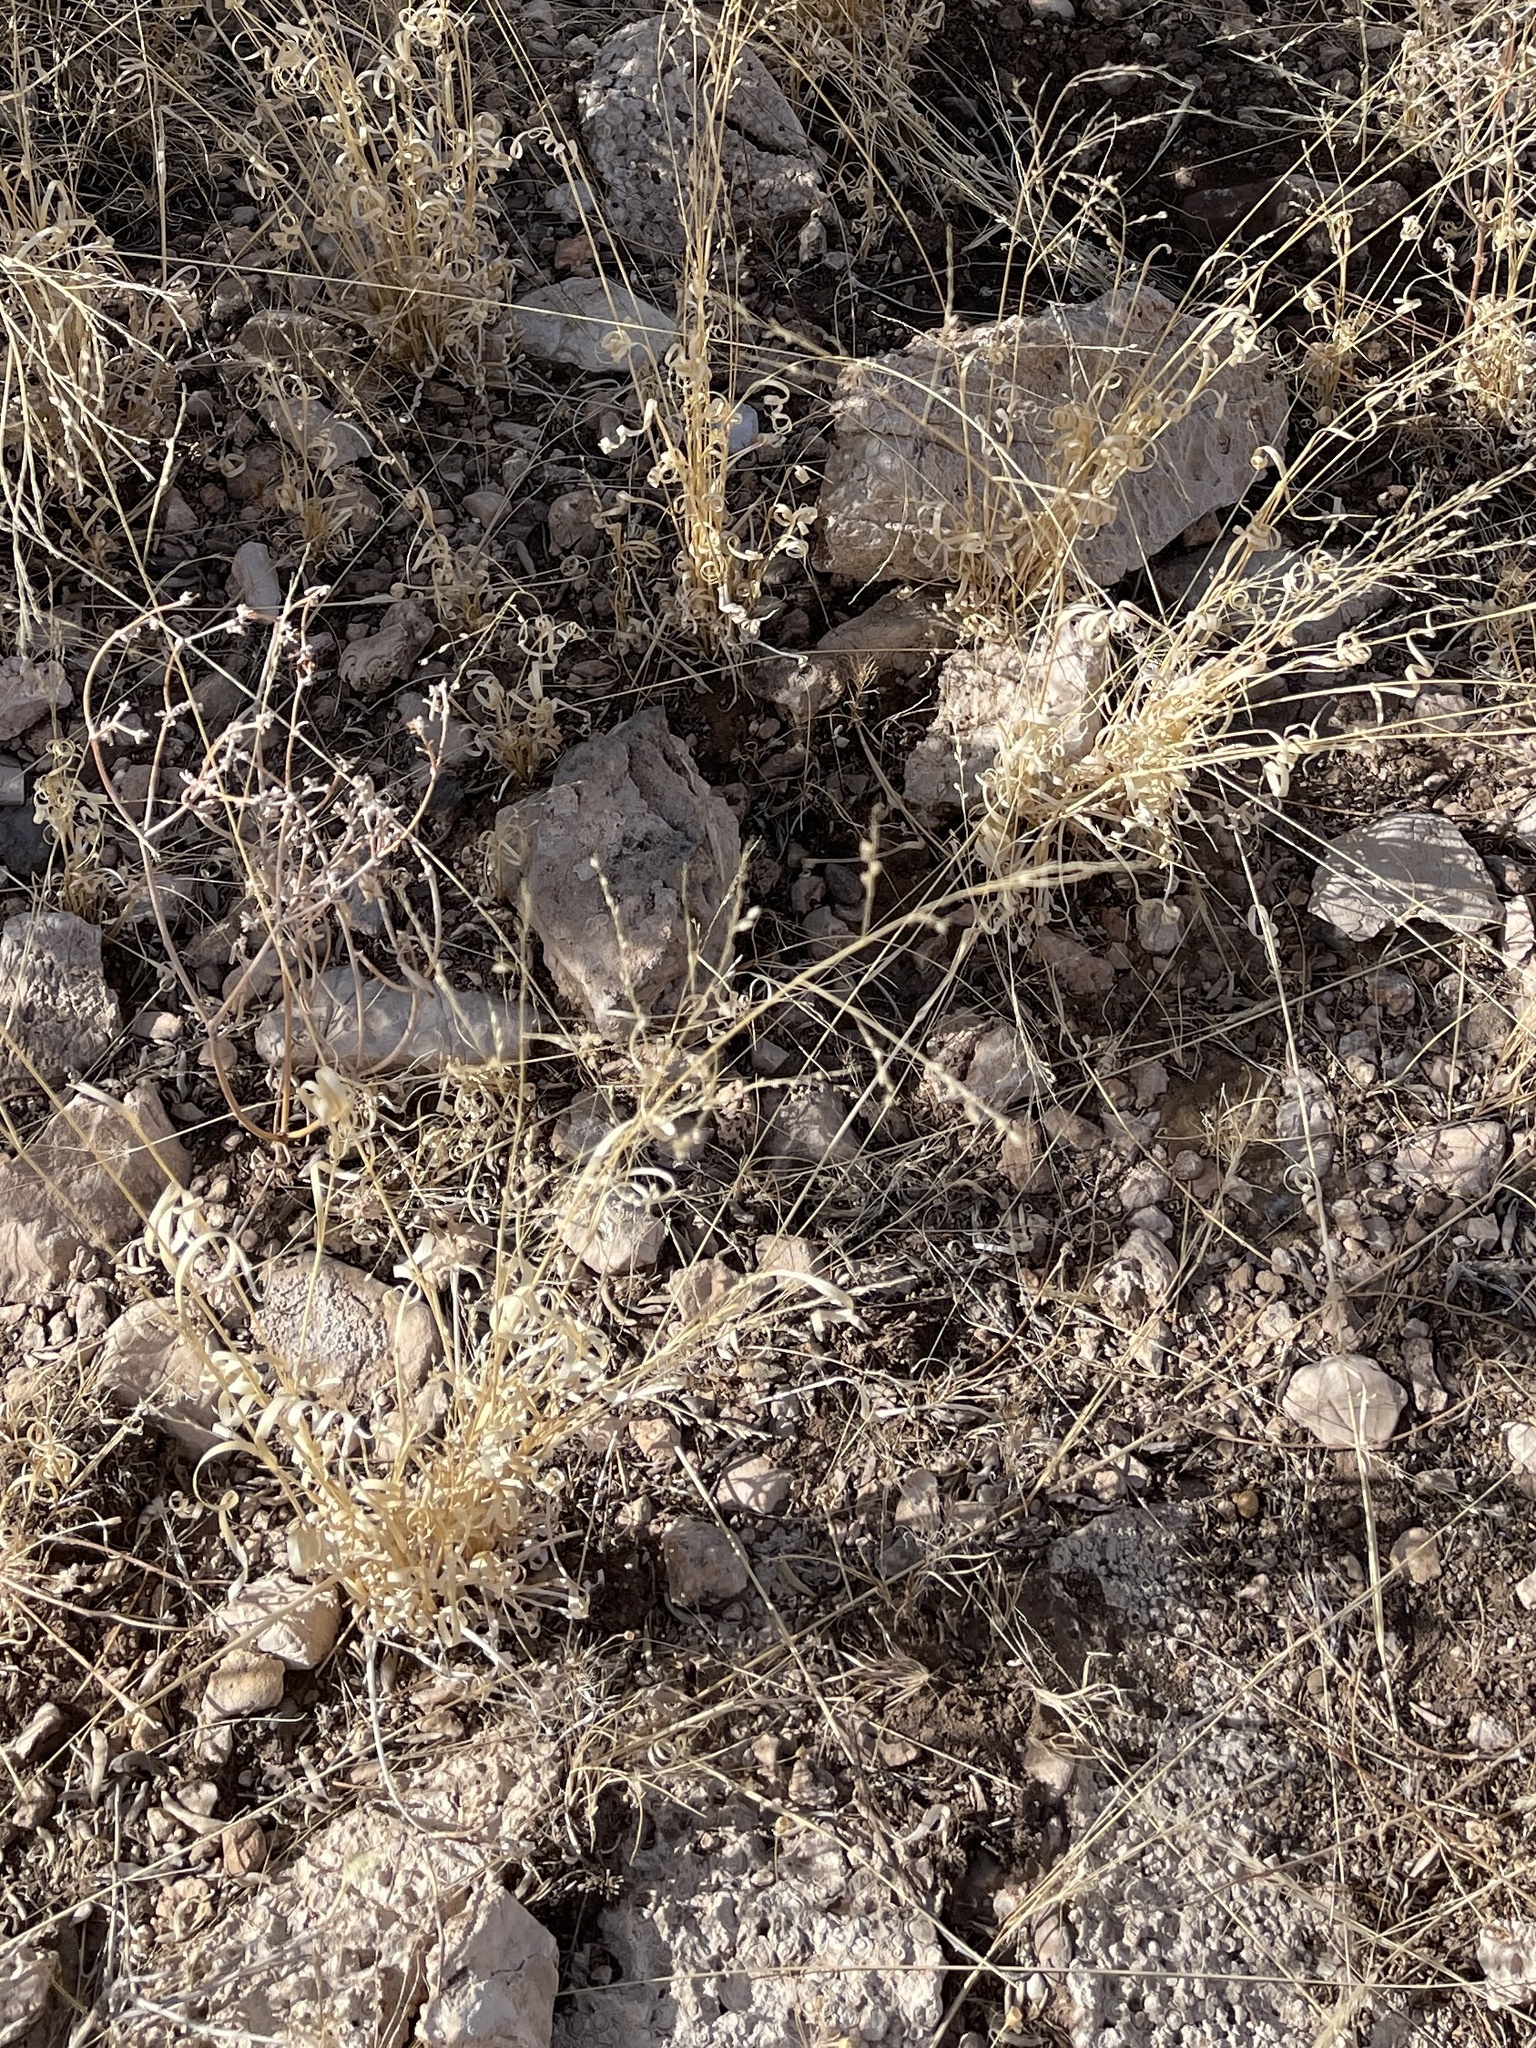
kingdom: Plantae
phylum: Tracheophyta
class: Liliopsida
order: Poales
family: Poaceae
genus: Panicum
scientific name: Panicum hallii
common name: Hall's witchgrass
